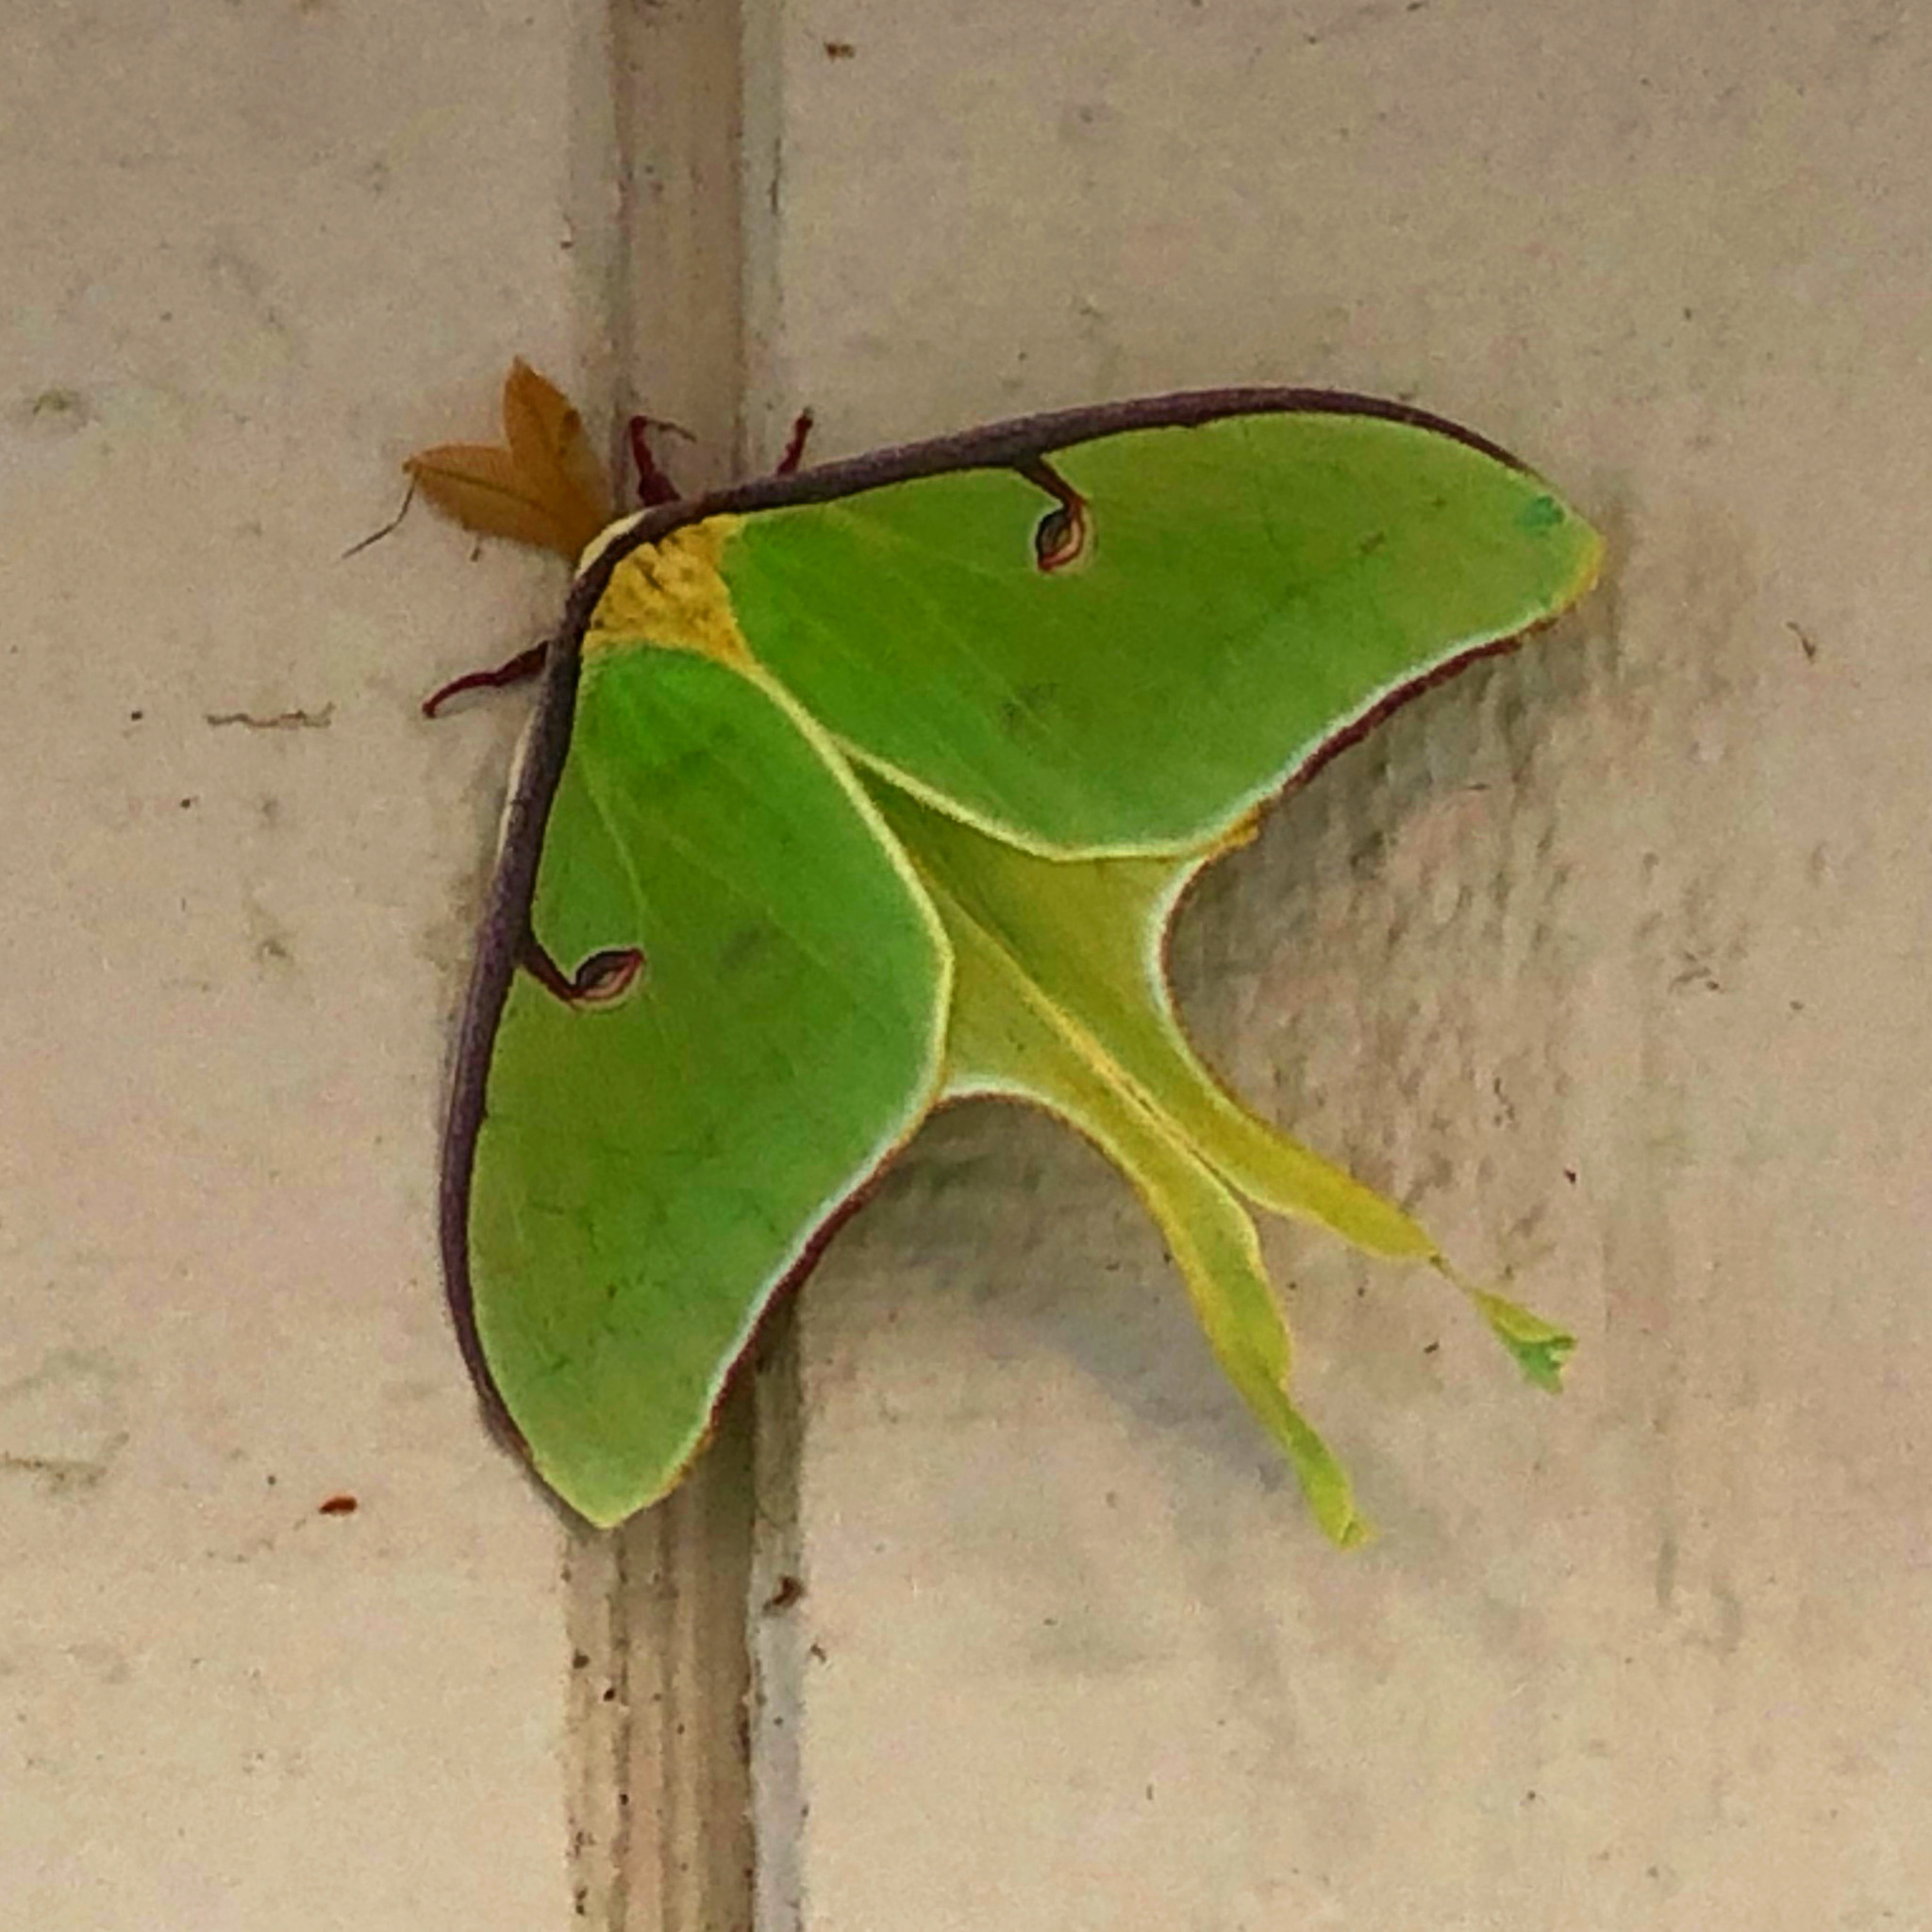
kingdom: Animalia
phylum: Arthropoda
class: Insecta
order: Lepidoptera
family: Saturniidae
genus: Actias
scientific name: Actias luna
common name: Luna moth
